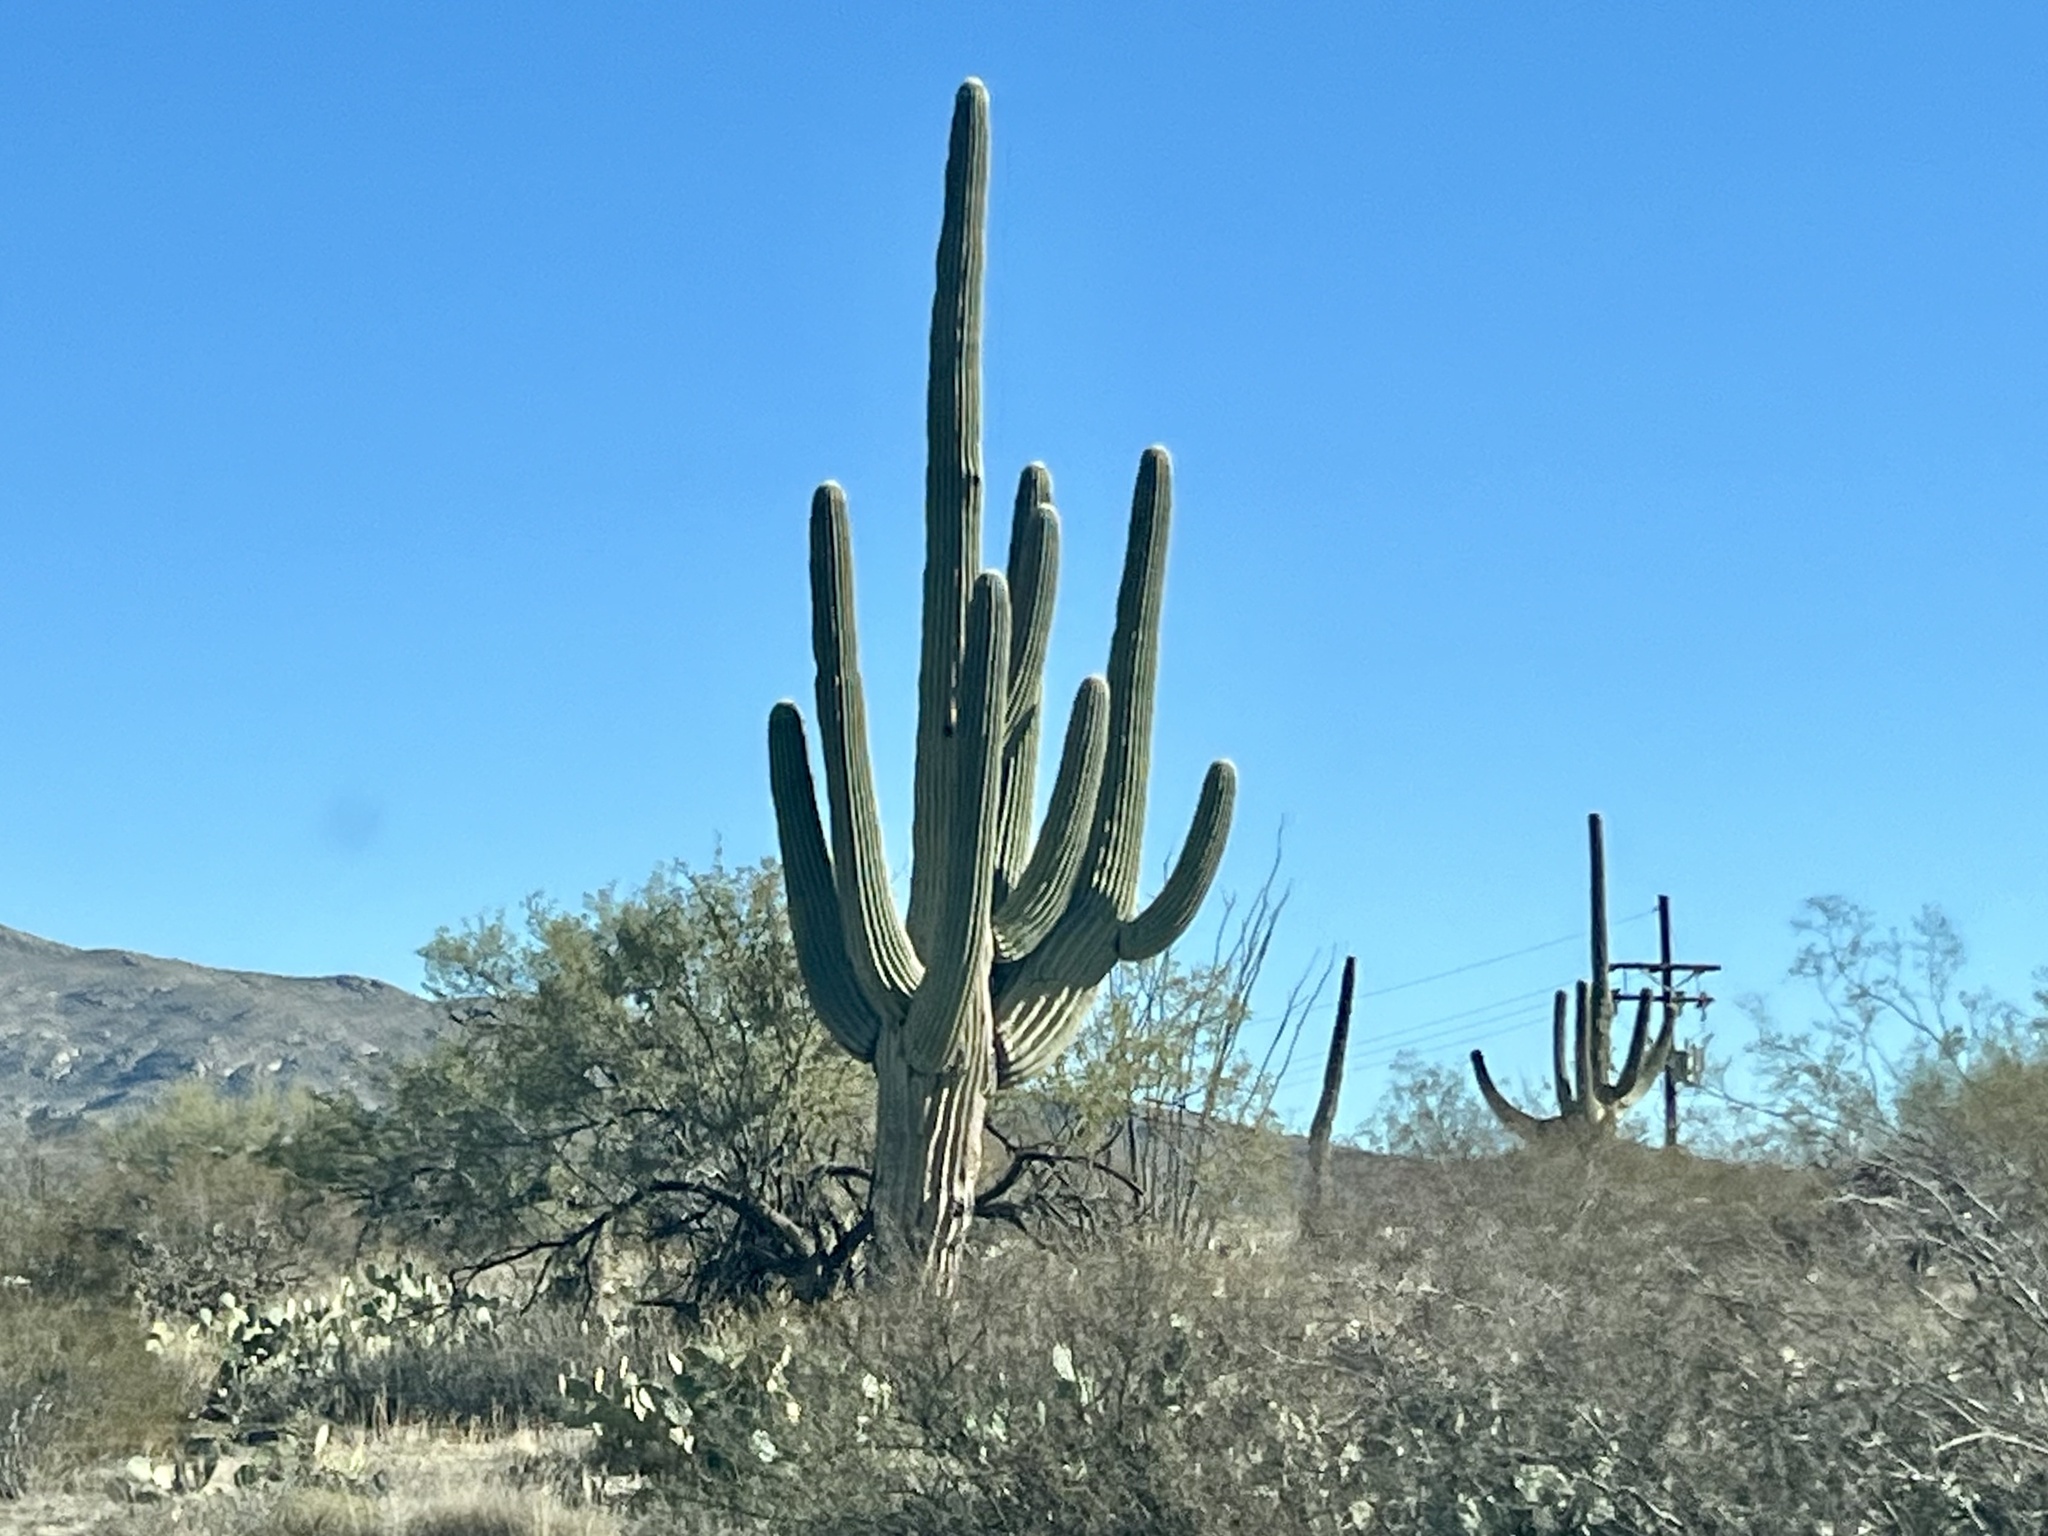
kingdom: Plantae
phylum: Tracheophyta
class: Magnoliopsida
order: Caryophyllales
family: Cactaceae
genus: Carnegiea
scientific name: Carnegiea gigantea
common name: Saguaro
